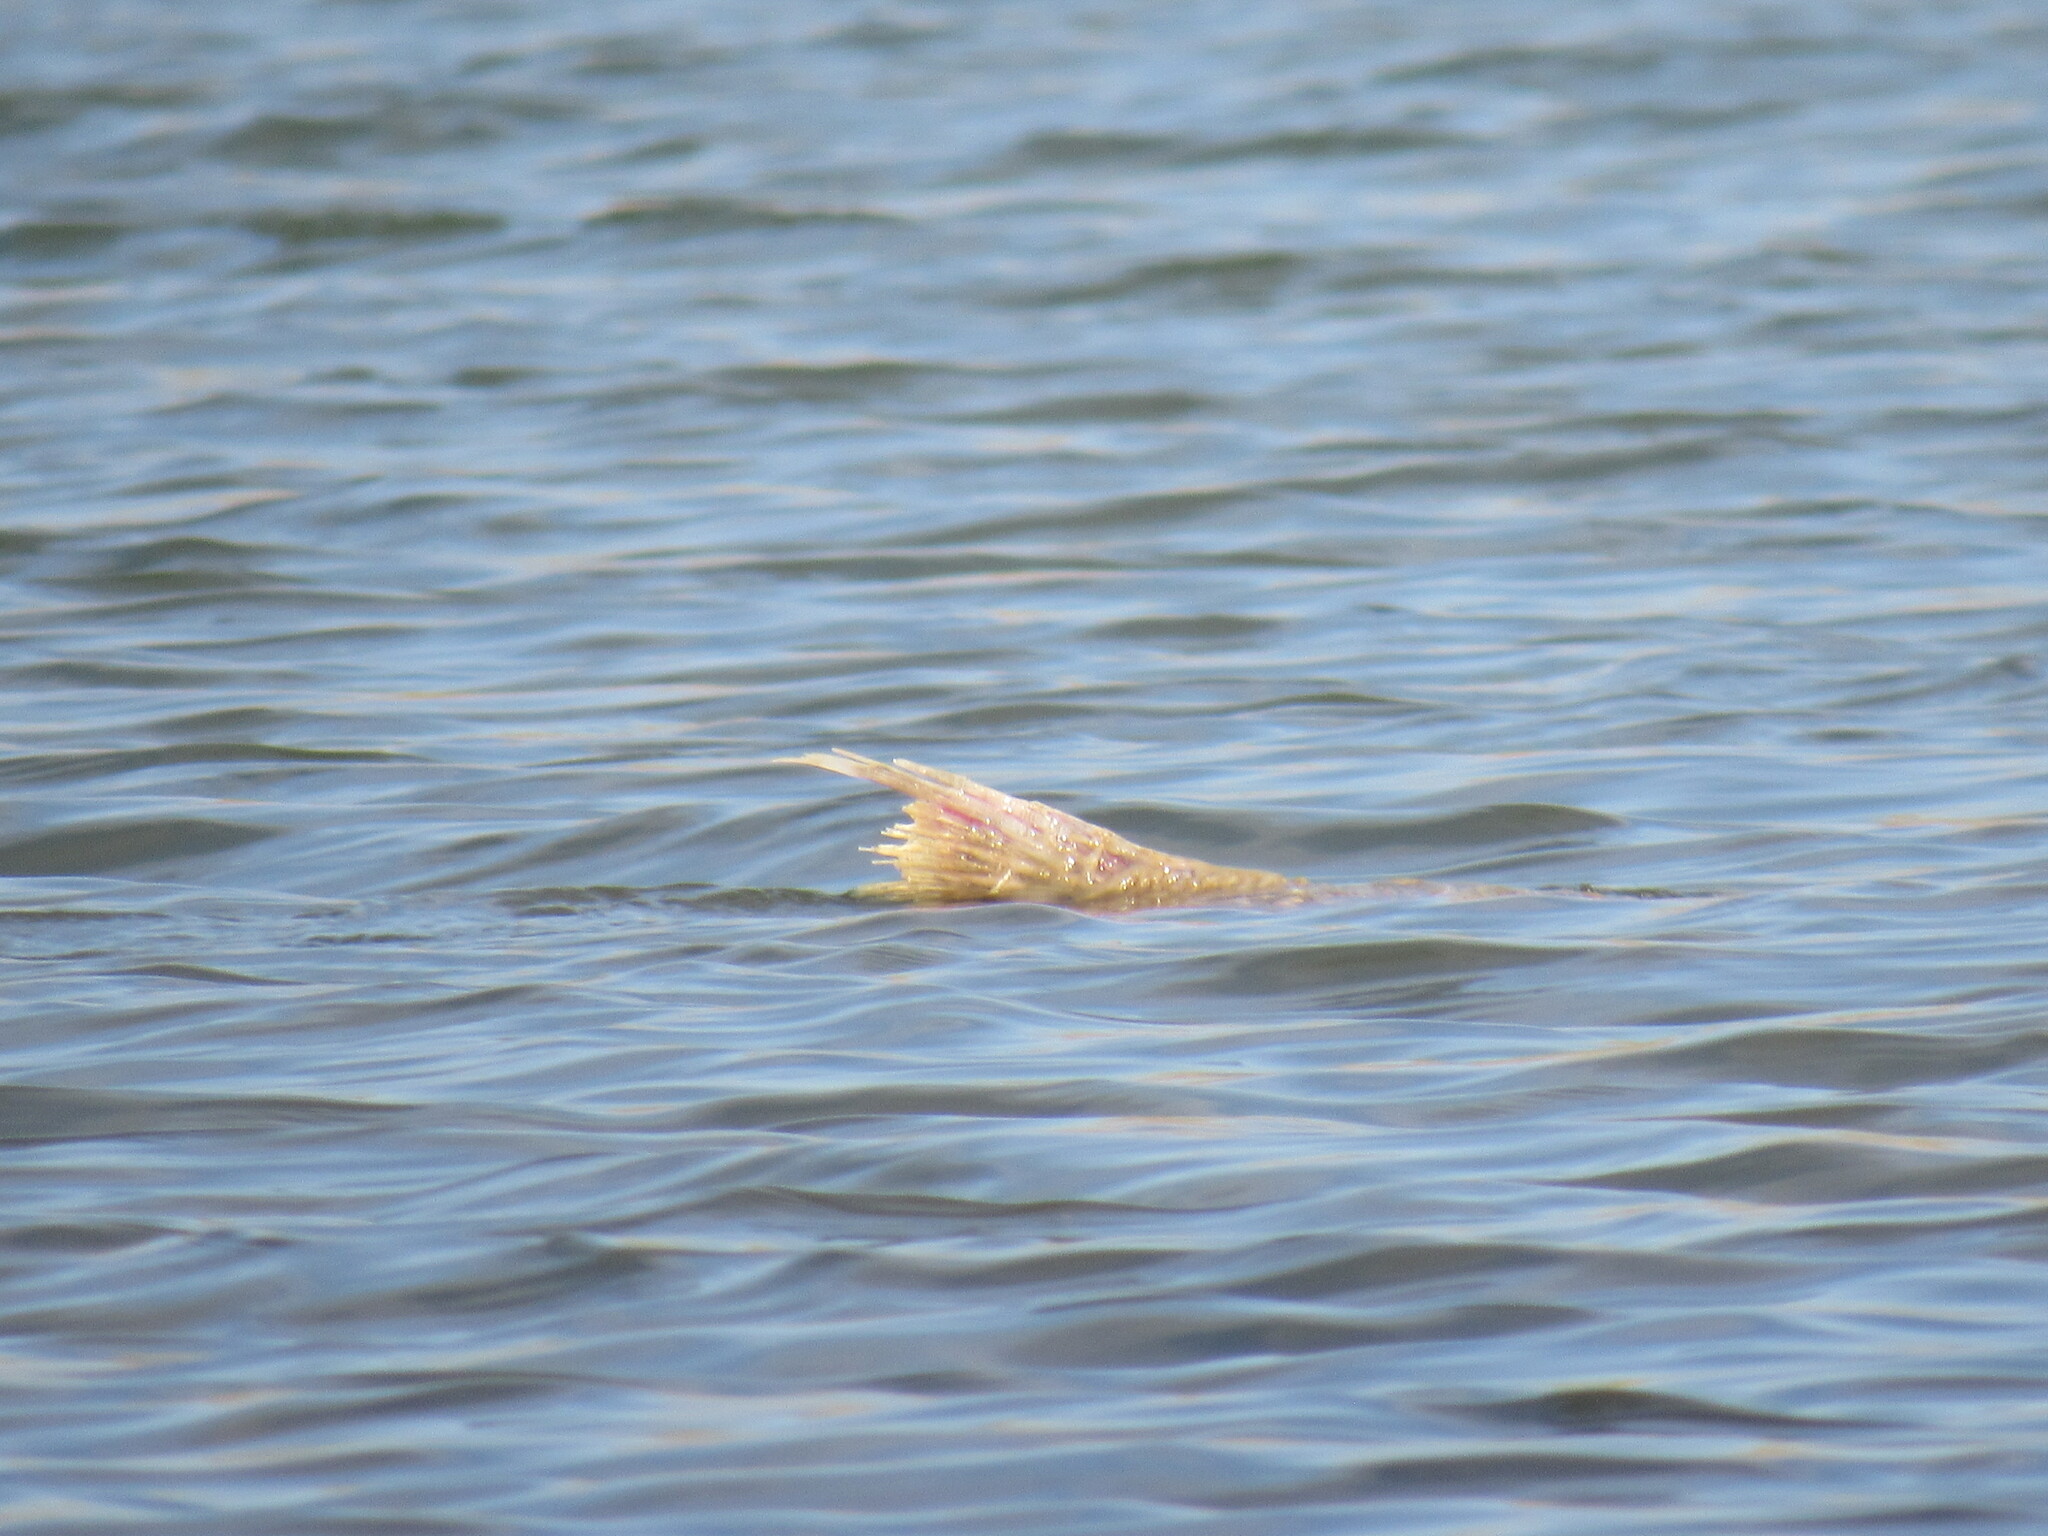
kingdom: Animalia
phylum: Chordata
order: Cypriniformes
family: Cyprinidae
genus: Cyprinus
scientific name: Cyprinus carpio
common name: Common carp
